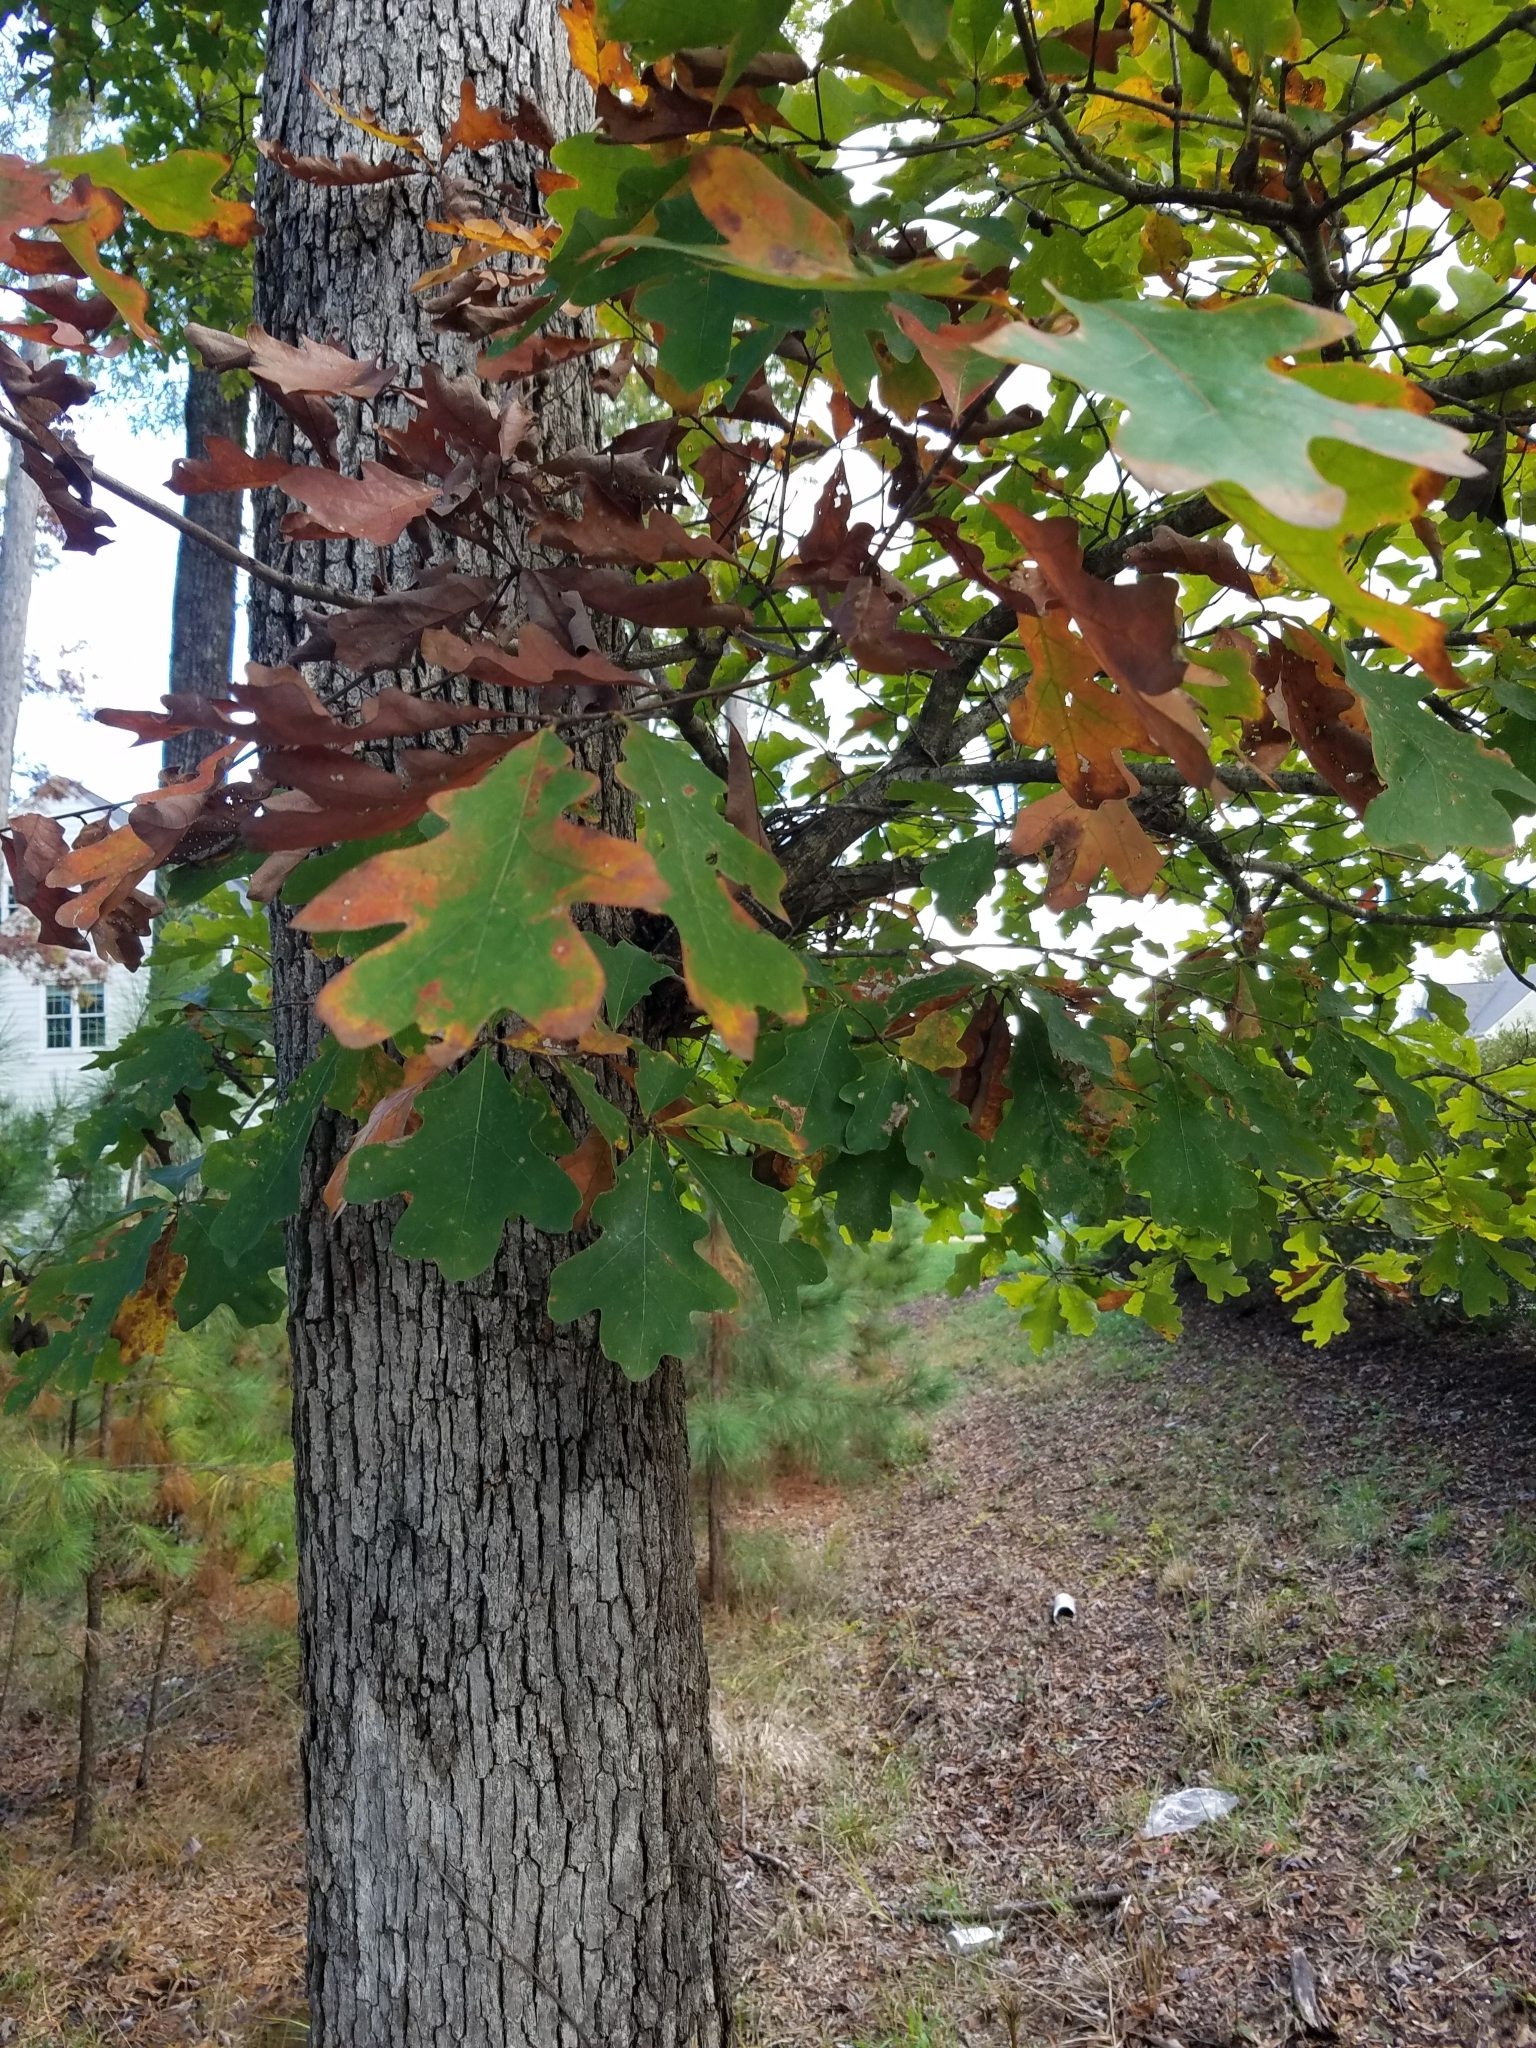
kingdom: Plantae
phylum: Tracheophyta
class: Magnoliopsida
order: Fagales
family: Fagaceae
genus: Quercus
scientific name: Quercus alba
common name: White oak
